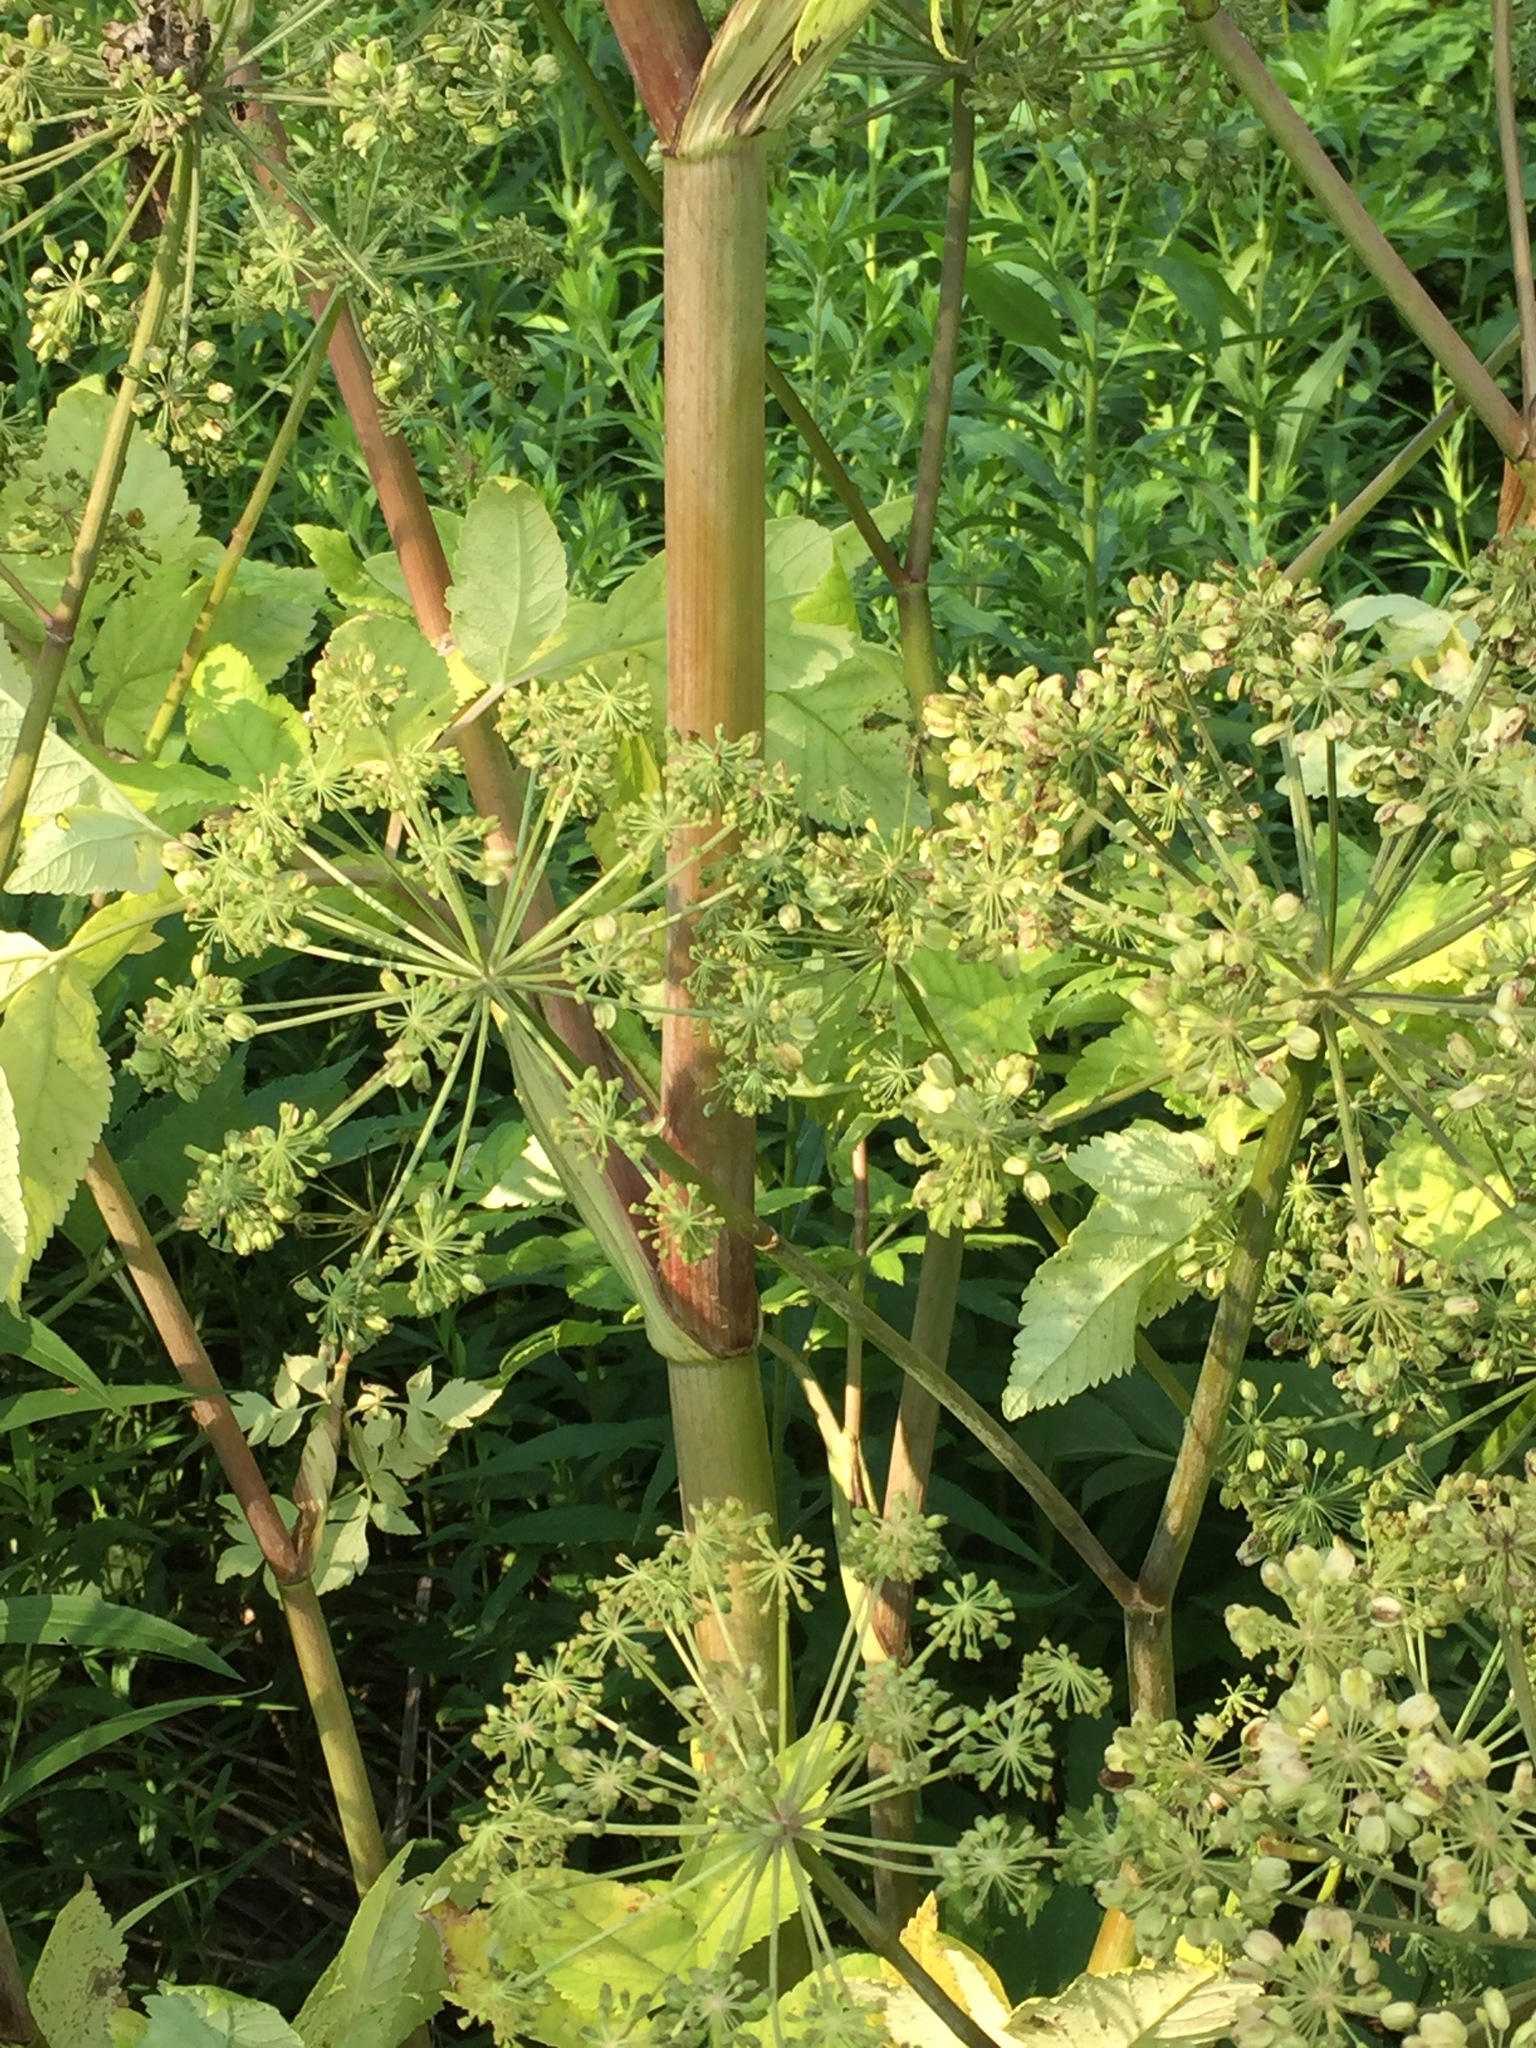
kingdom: Plantae
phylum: Tracheophyta
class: Magnoliopsida
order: Apiales
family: Apiaceae
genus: Angelica
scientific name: Angelica atropurpurea
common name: Great angelica
